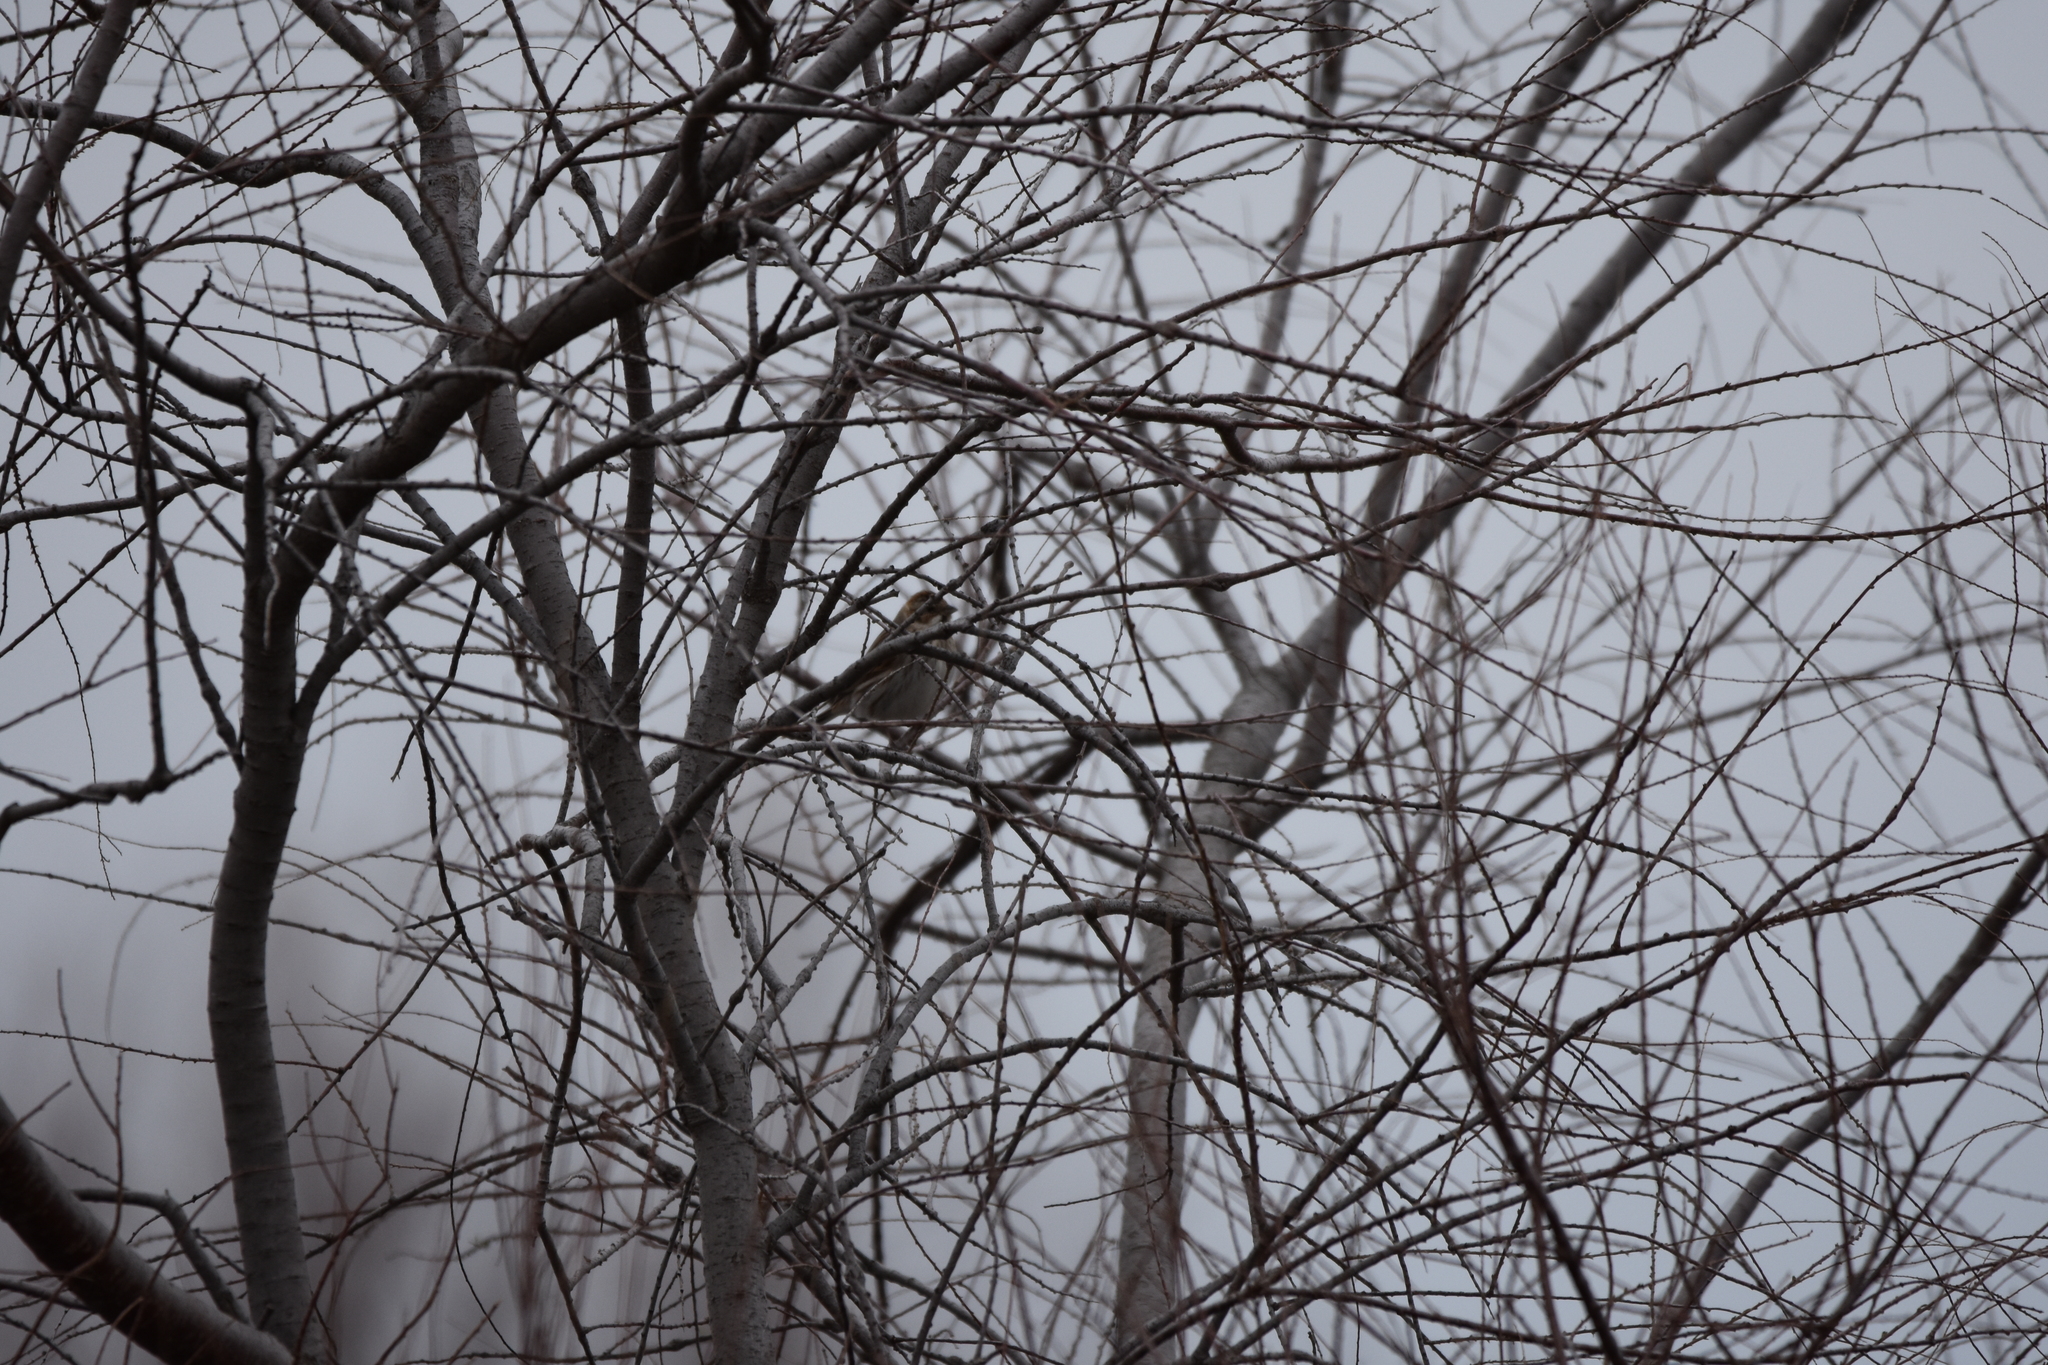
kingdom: Animalia
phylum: Chordata
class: Aves
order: Passeriformes
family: Emberizidae
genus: Emberiza
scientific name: Emberiza schoeniclus
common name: Reed bunting
